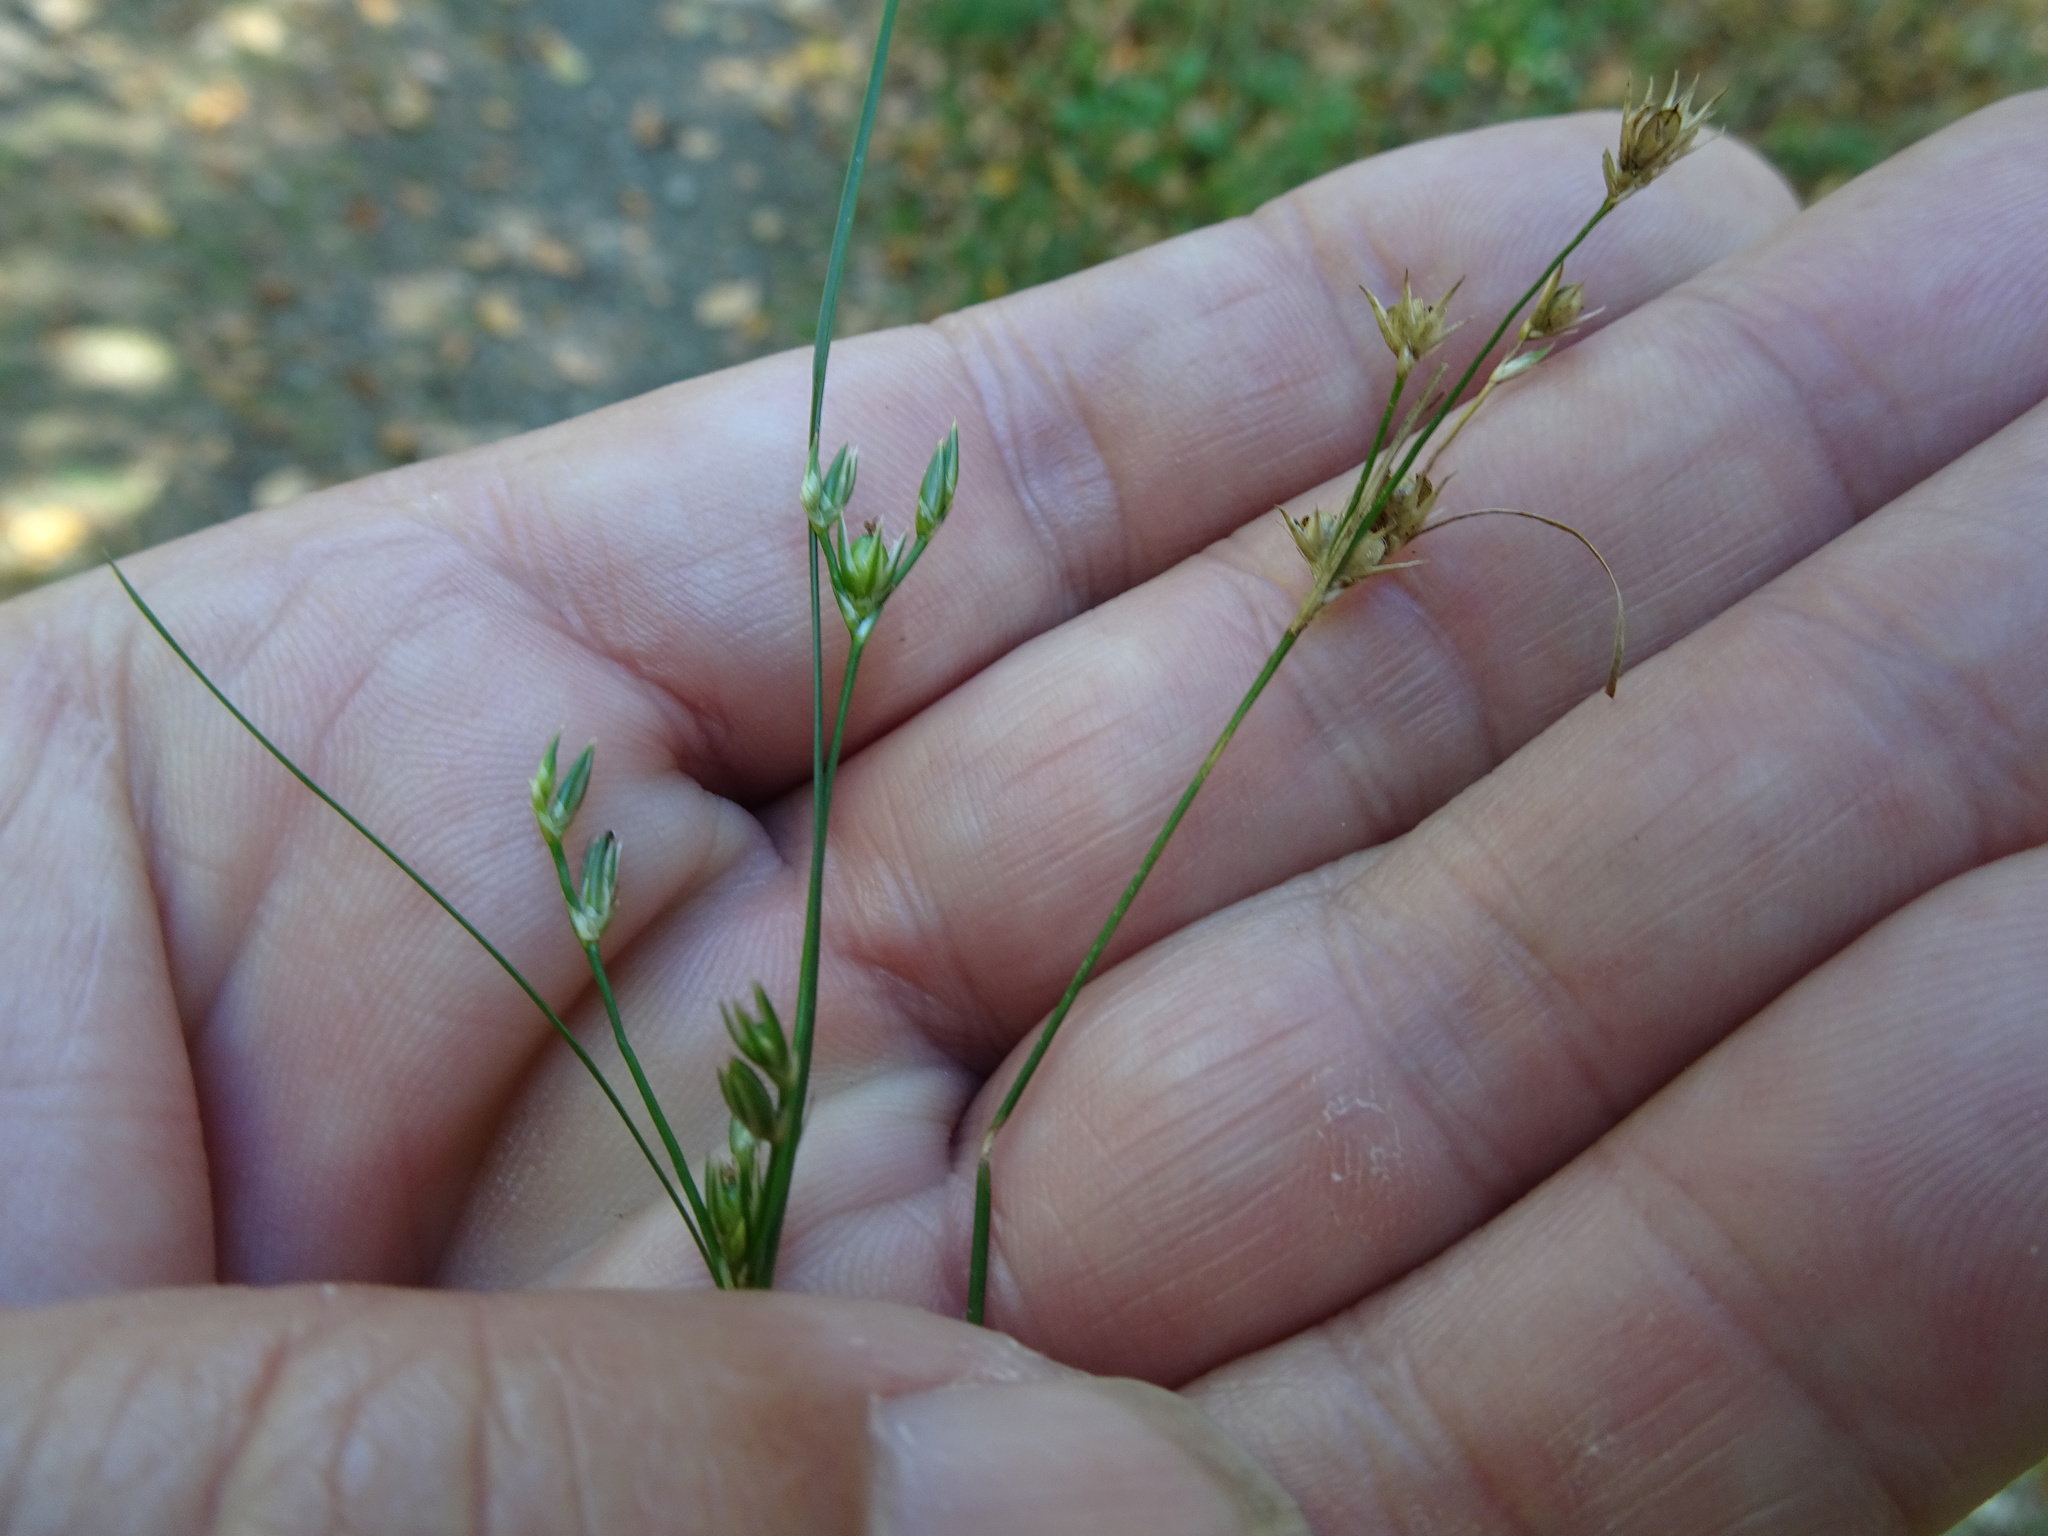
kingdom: Plantae
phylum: Tracheophyta
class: Liliopsida
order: Poales
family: Juncaceae
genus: Juncus
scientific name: Juncus tenuis
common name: Slender rush
